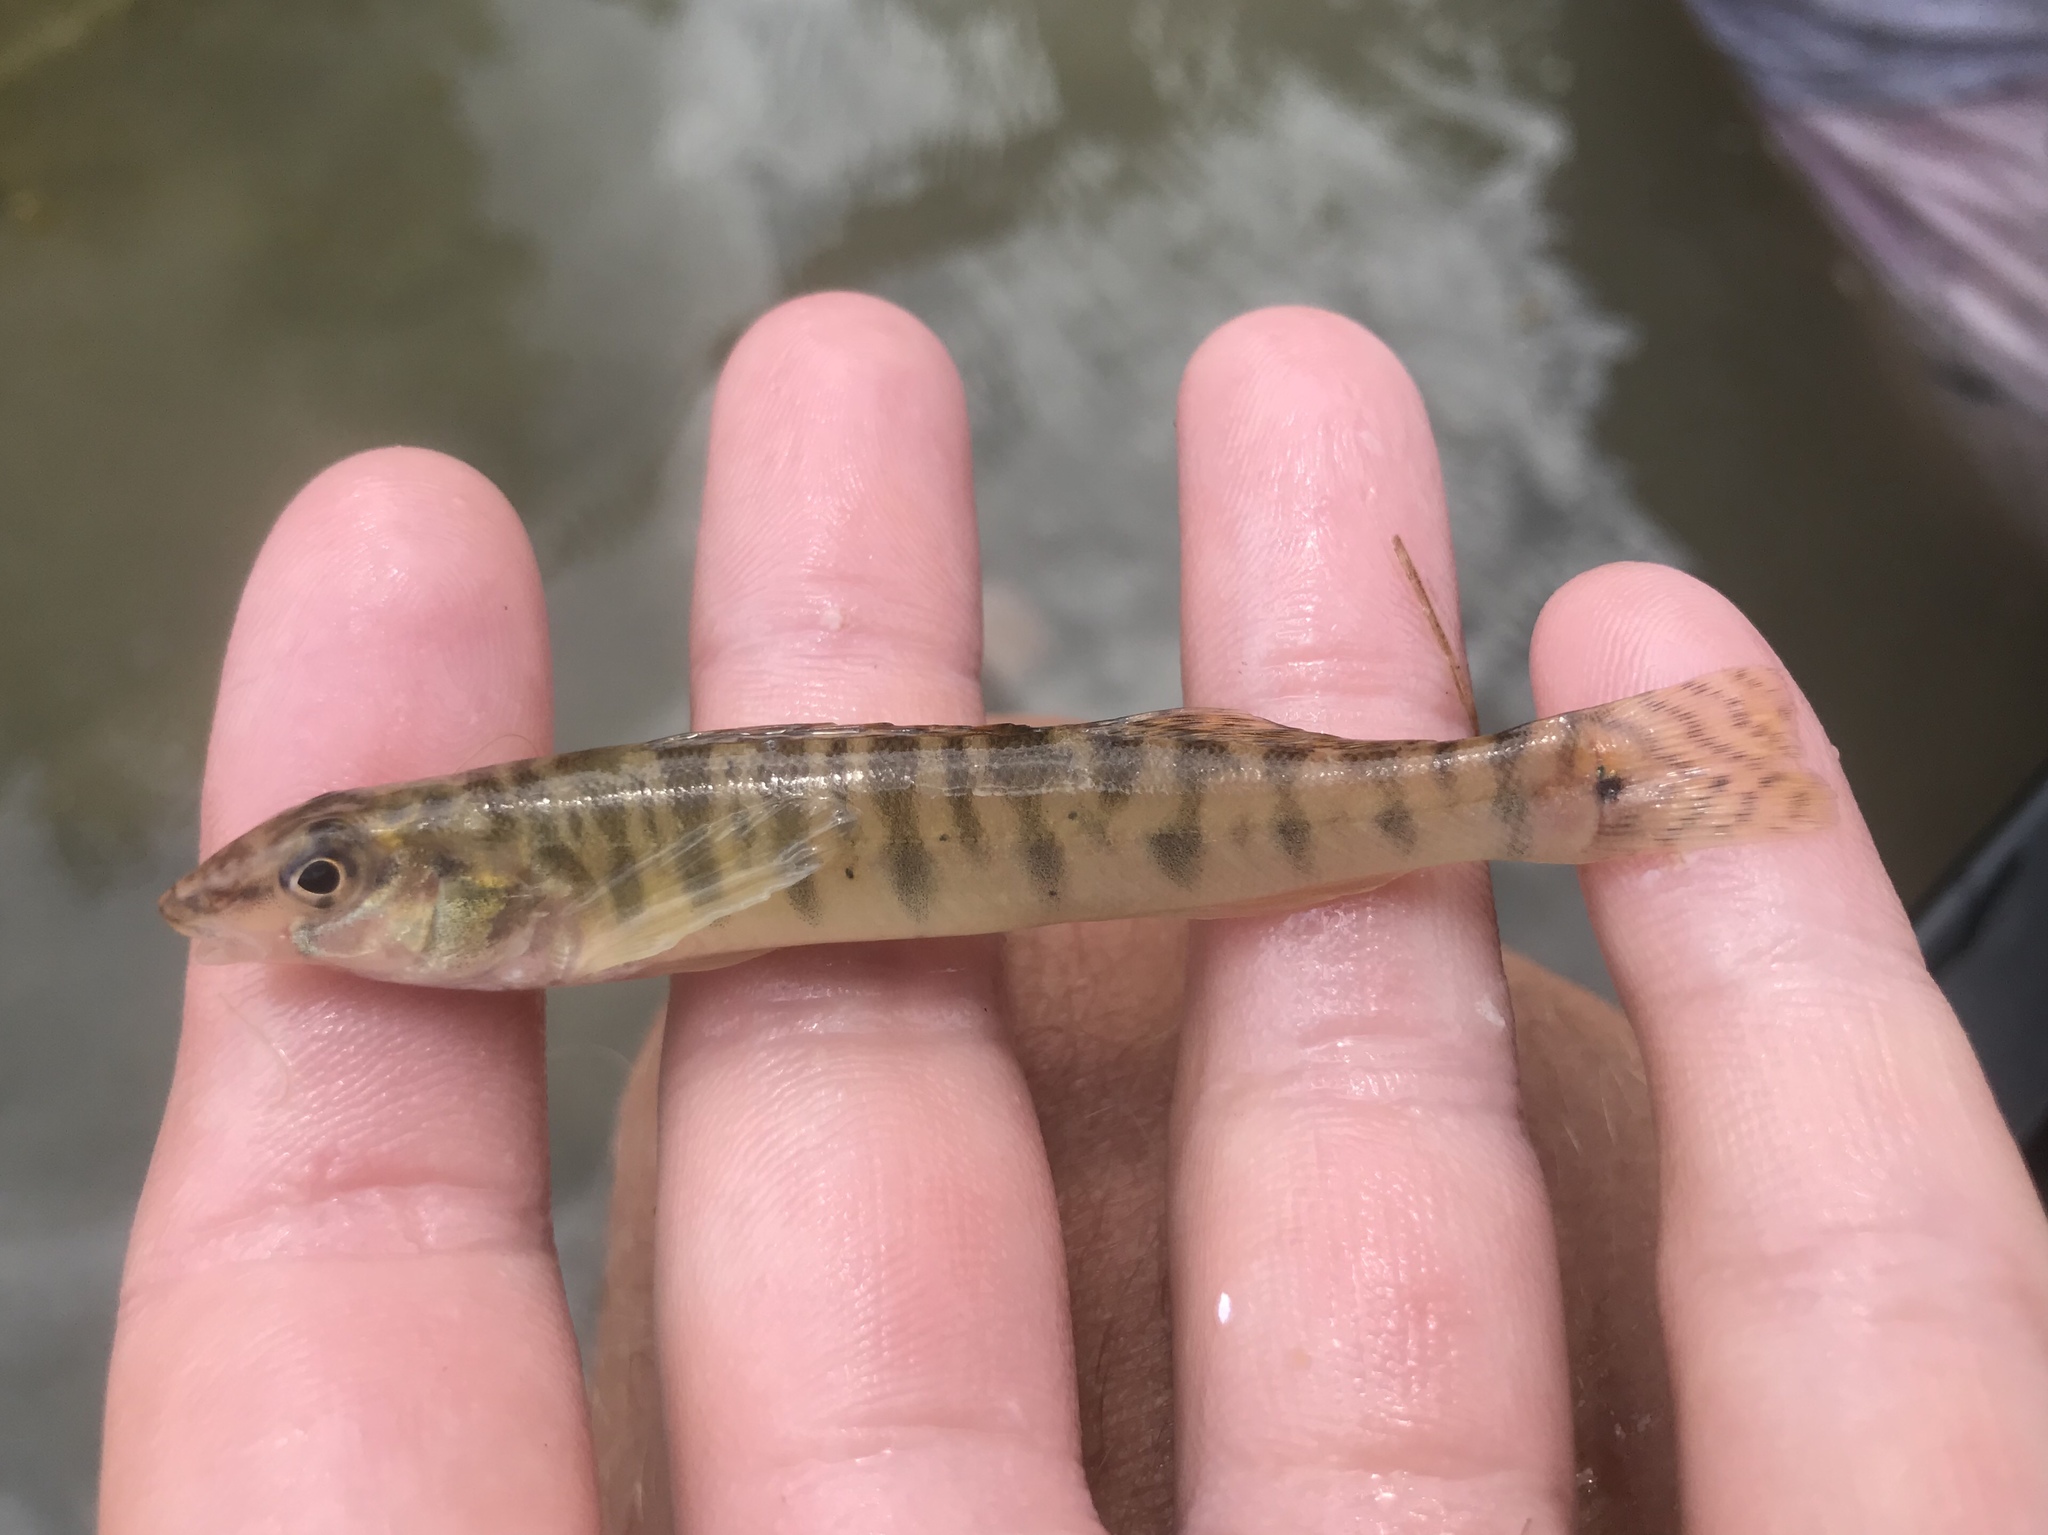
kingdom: Animalia
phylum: Chordata
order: Perciformes
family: Percidae
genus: Percina
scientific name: Percina carbonaria
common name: Texas logperch
